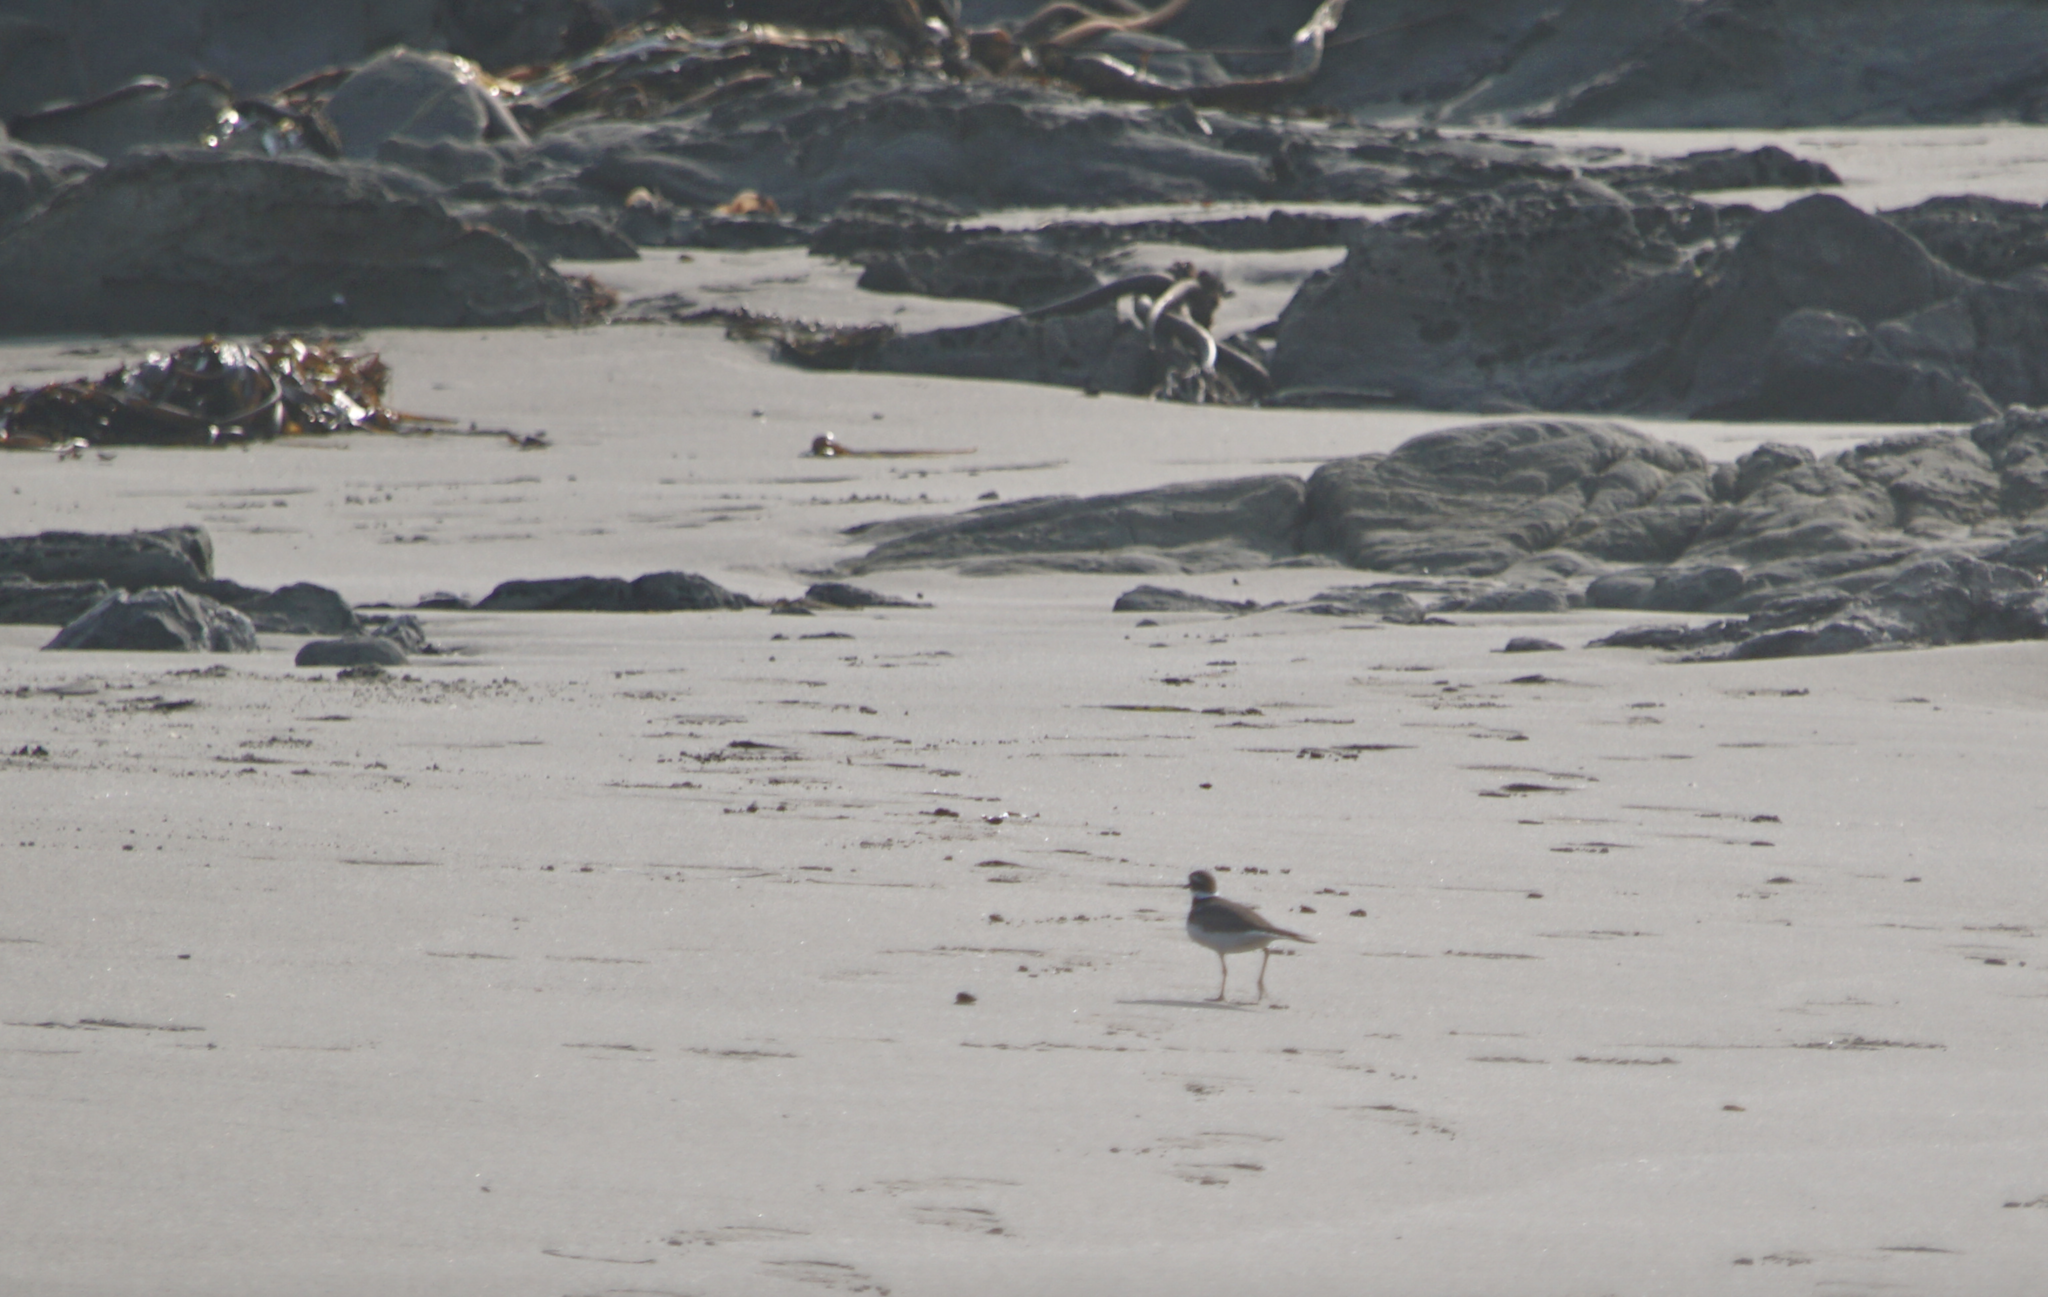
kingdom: Animalia
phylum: Chordata
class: Aves
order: Charadriiformes
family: Charadriidae
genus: Charadrius
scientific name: Charadrius vociferus
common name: Killdeer
